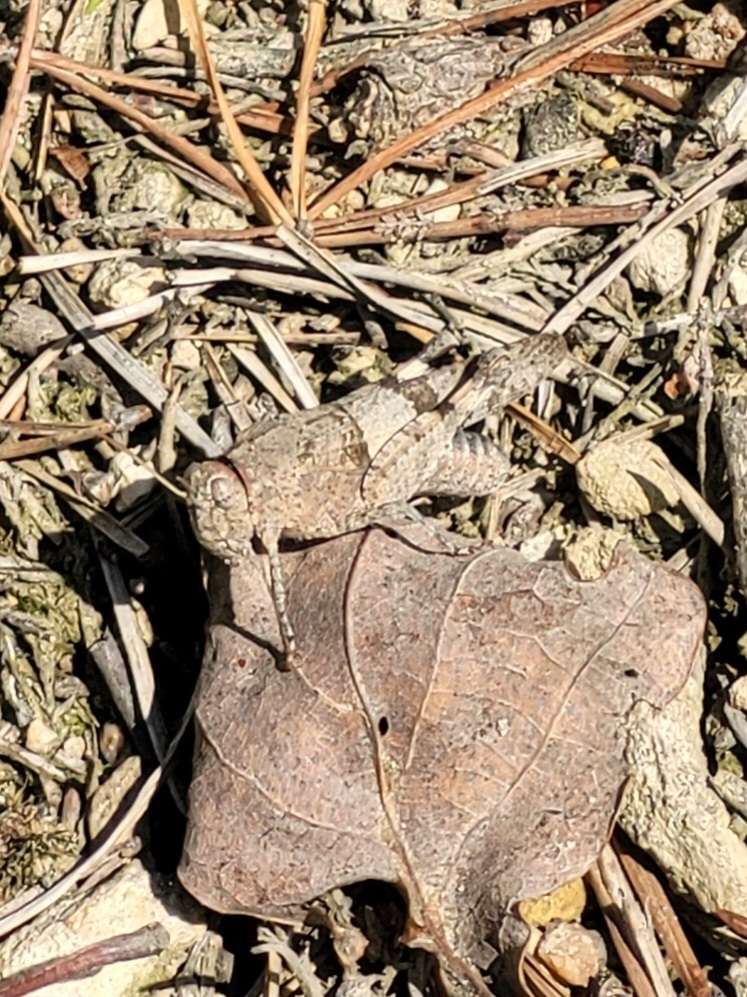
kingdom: Animalia
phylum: Arthropoda
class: Insecta
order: Orthoptera
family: Acrididae
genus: Oedipoda
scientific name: Oedipoda caerulescens
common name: Blue-winged grasshopper
